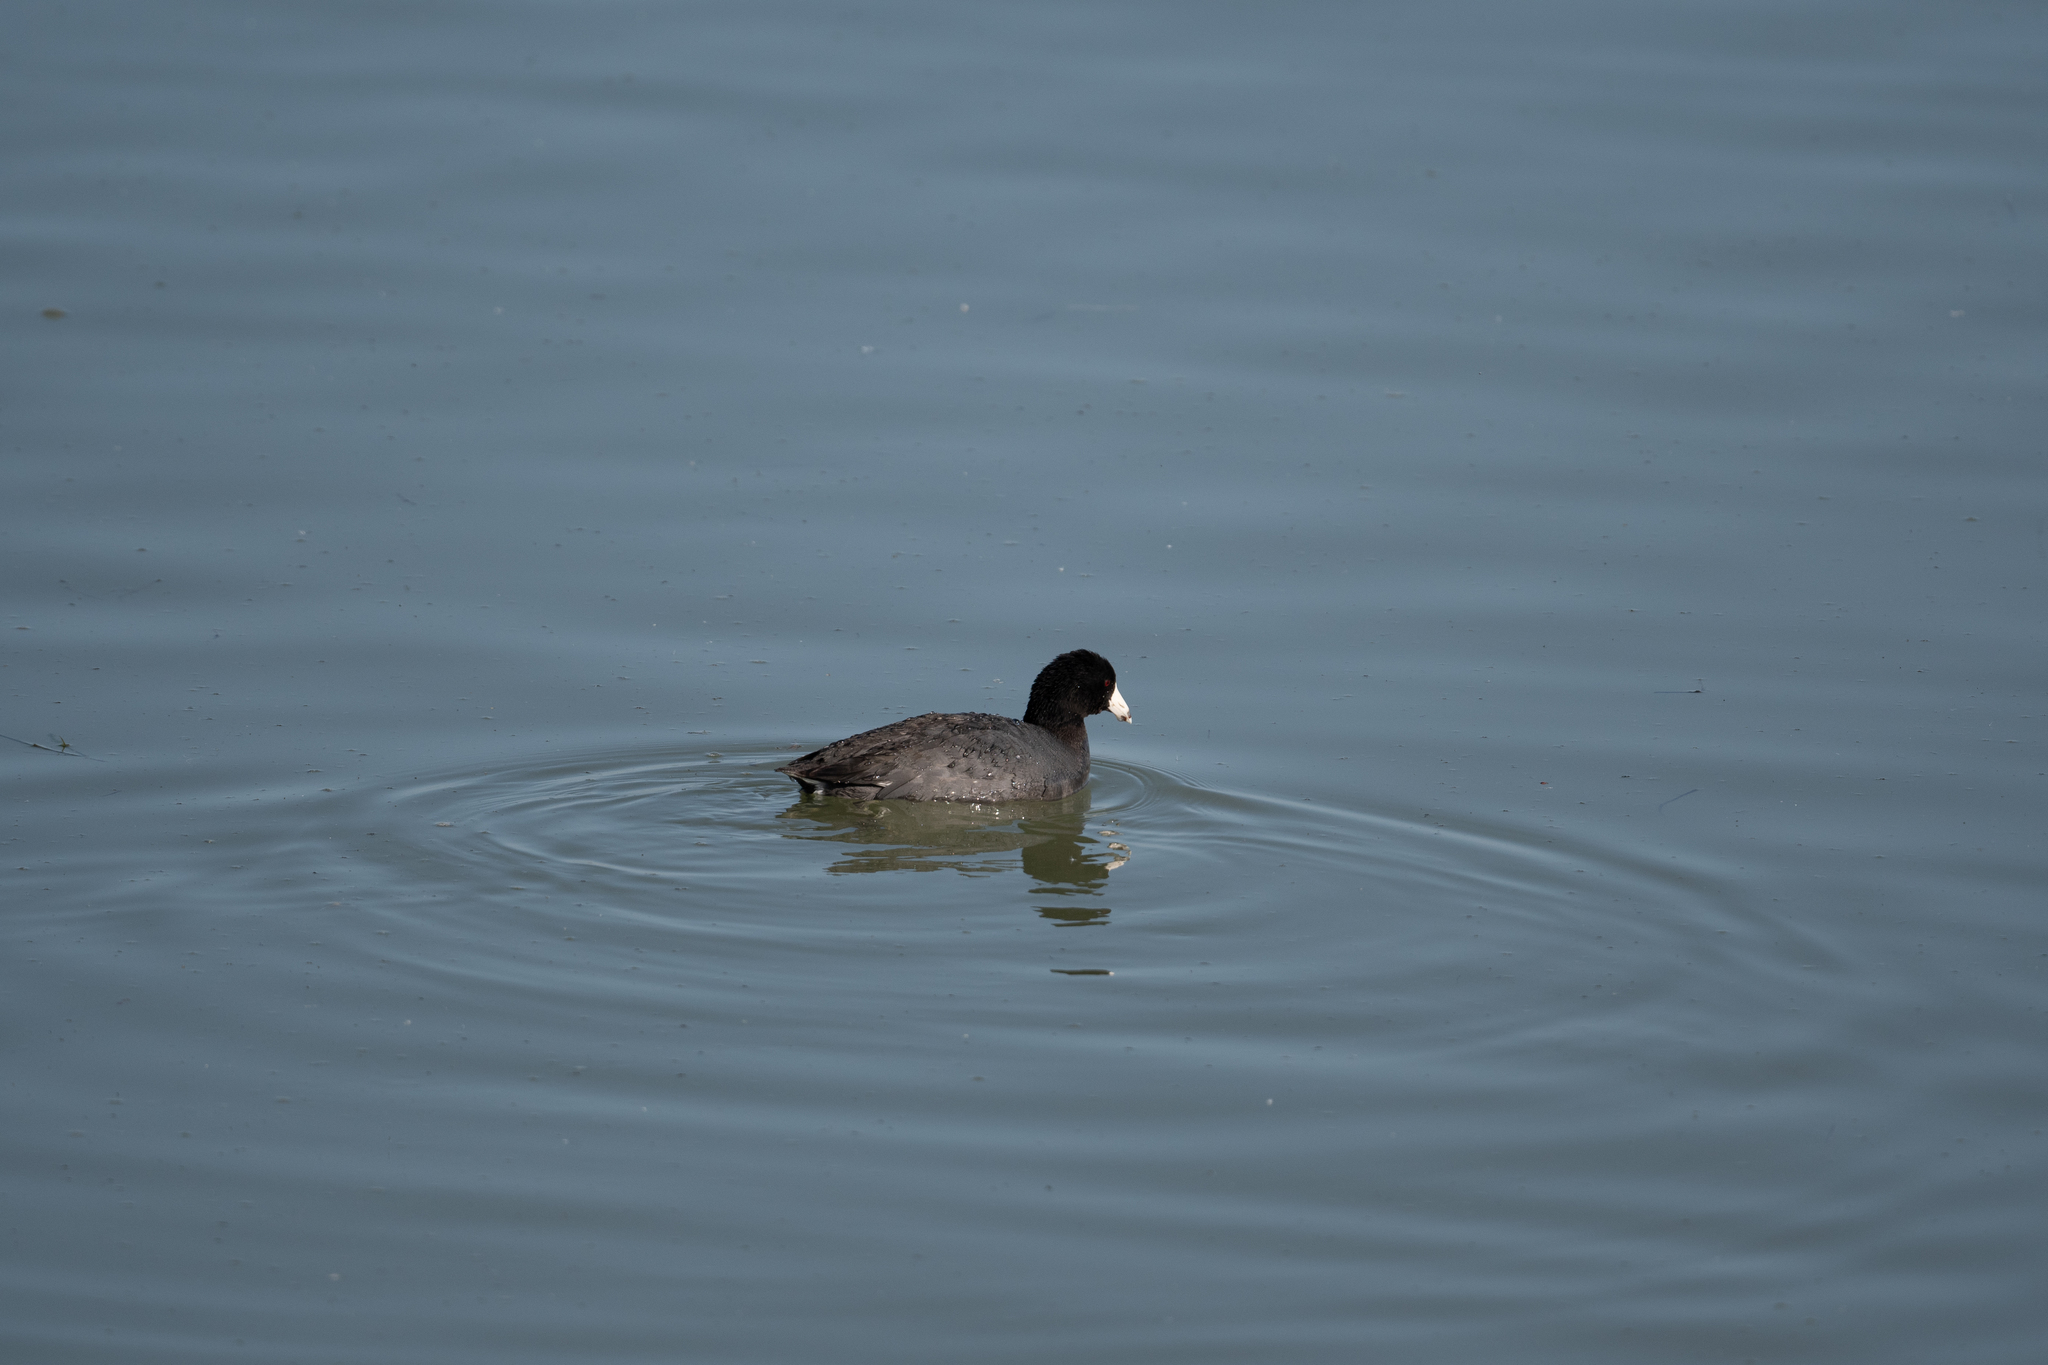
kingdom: Animalia
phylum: Chordata
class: Aves
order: Gruiformes
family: Rallidae
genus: Fulica
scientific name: Fulica americana
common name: American coot
